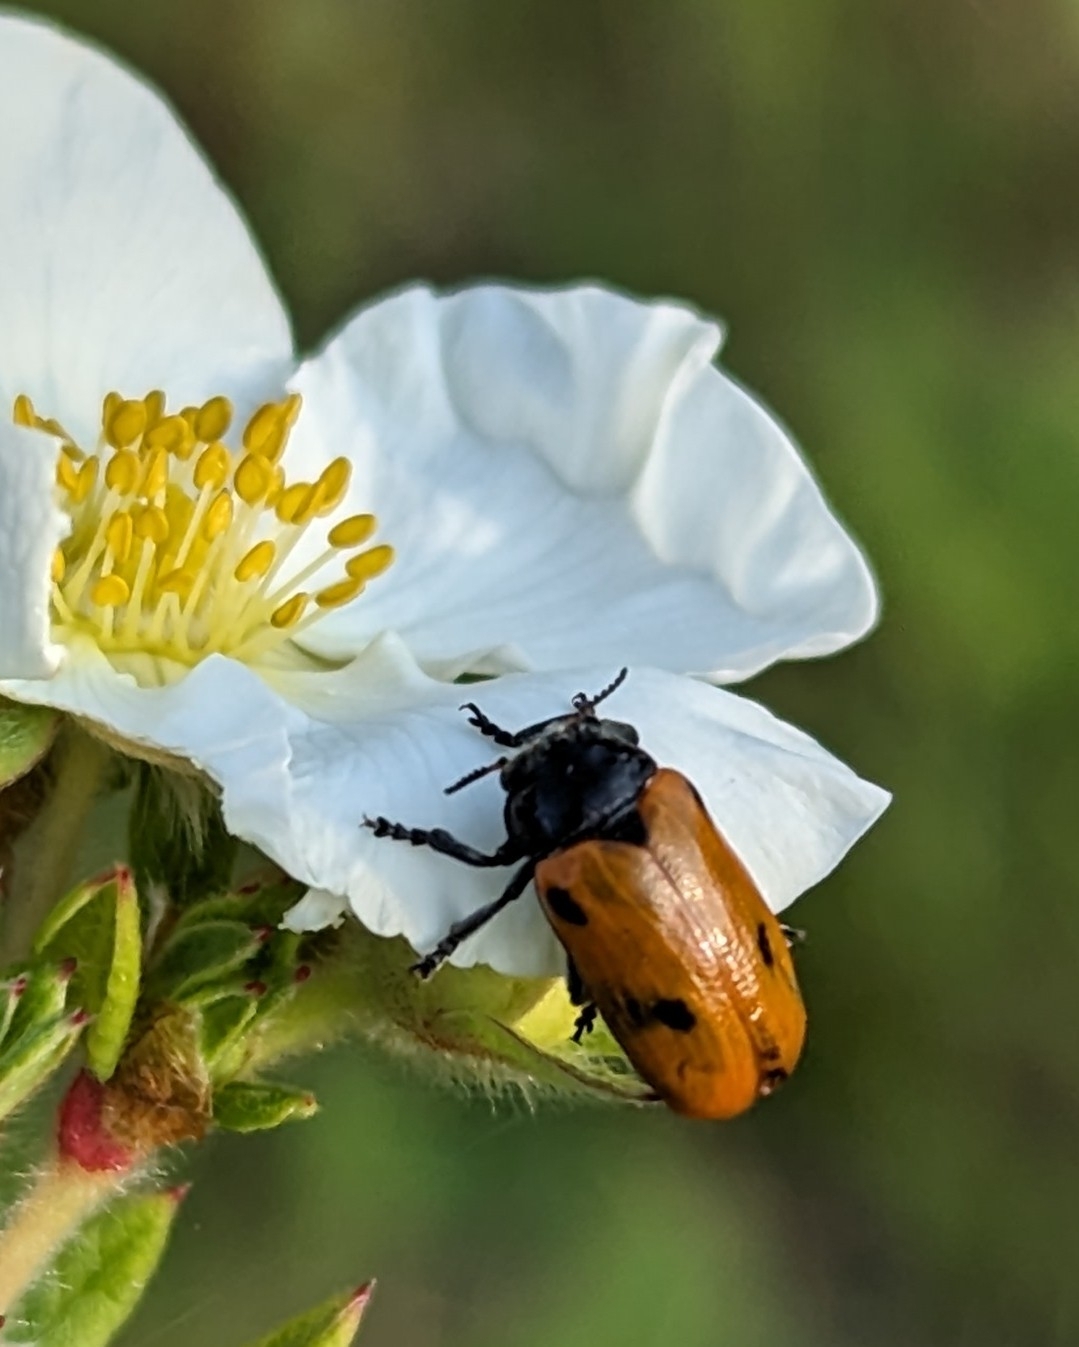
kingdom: Animalia
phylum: Arthropoda
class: Insecta
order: Coleoptera
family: Chrysomelidae
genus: Clytra
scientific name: Clytra quadripunctata
